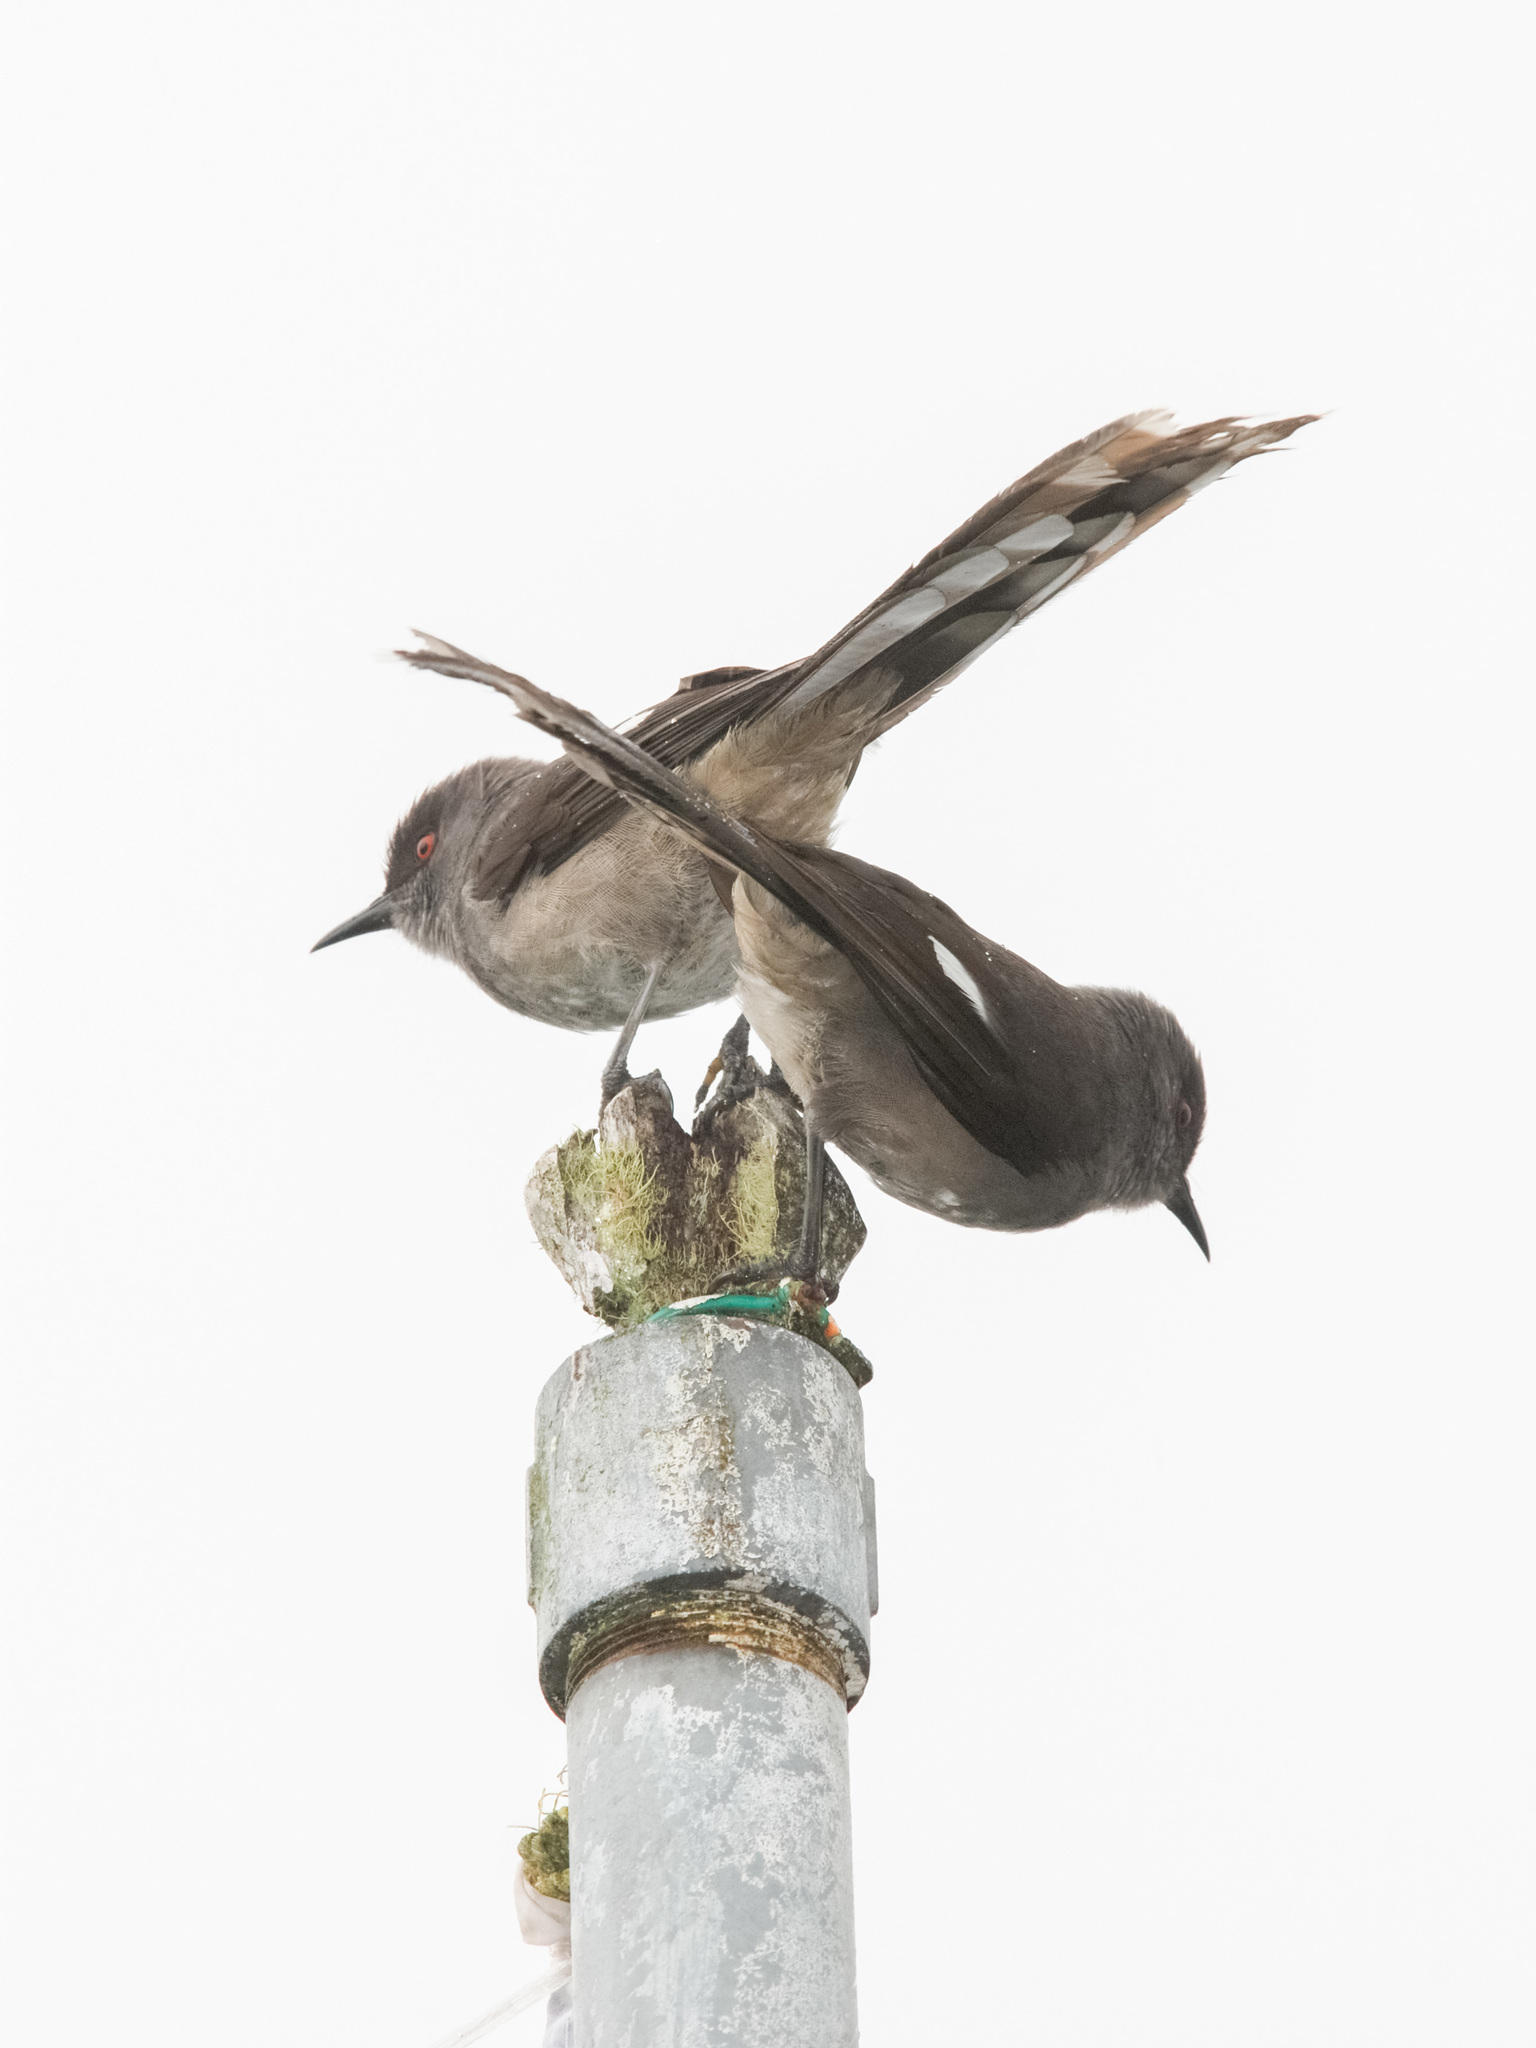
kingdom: Animalia
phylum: Chordata
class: Aves
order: Passeriformes
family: Leiothrichidae
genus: Heterophasia
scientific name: Heterophasia picaoides
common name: Long-tailed sibia
